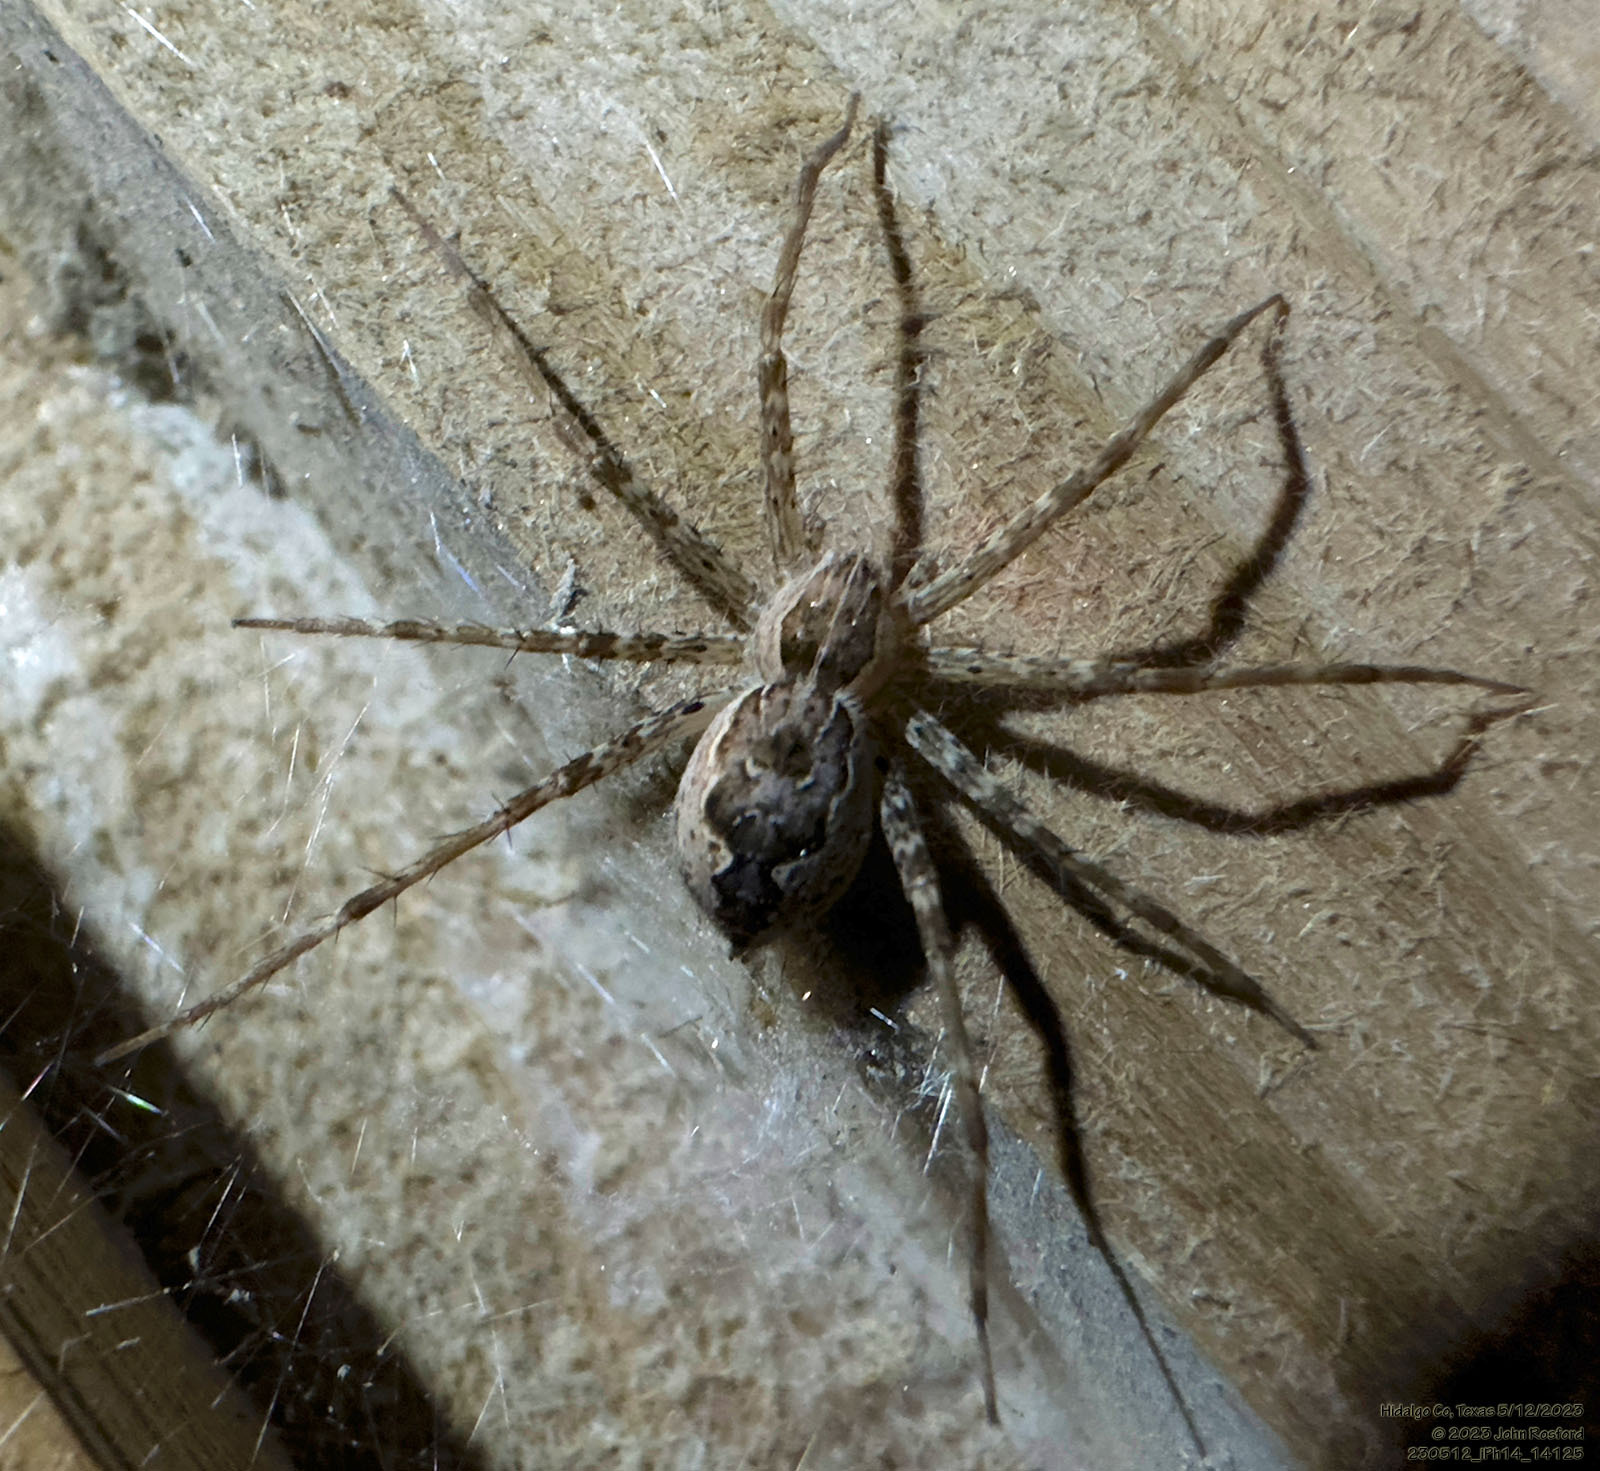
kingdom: Animalia
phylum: Arthropoda
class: Arachnida
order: Araneae
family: Pisauridae
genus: Tinus
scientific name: Tinus peregrinus
